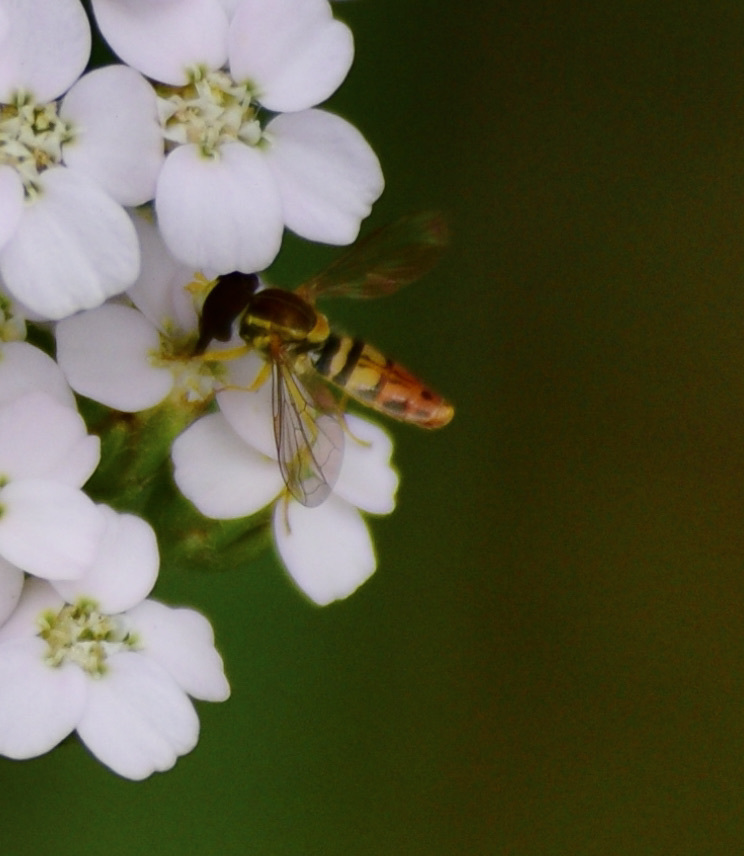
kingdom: Animalia
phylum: Arthropoda
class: Insecta
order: Diptera
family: Syrphidae
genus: Toxomerus
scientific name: Toxomerus marginatus
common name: Syrphid fly
